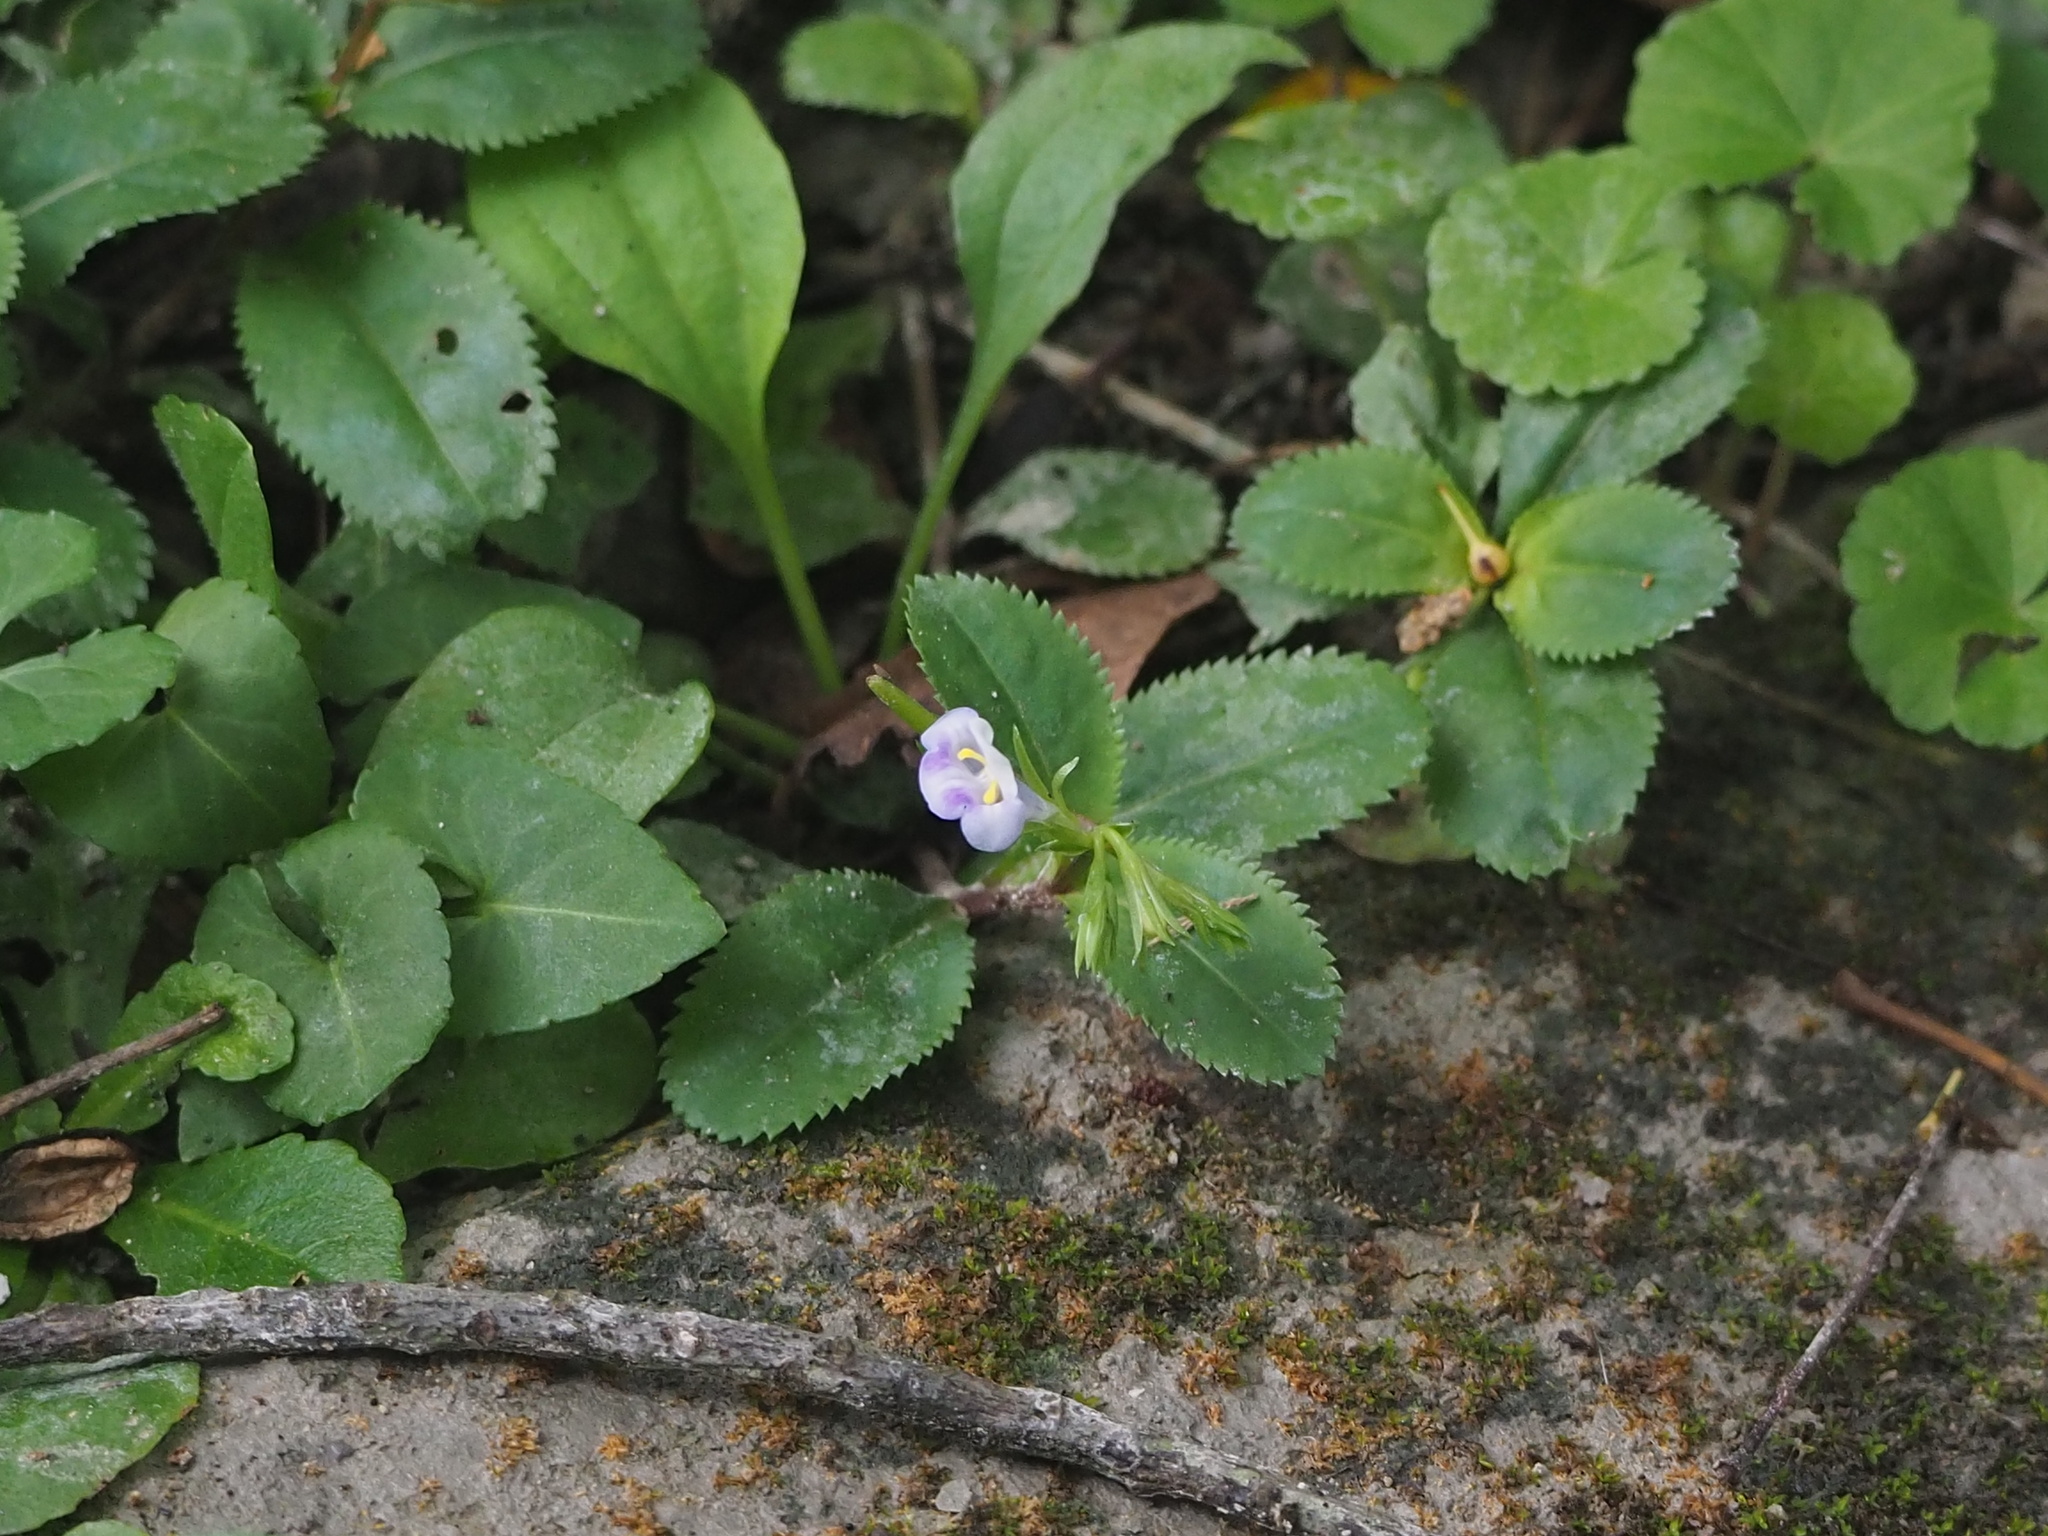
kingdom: Plantae
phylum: Tracheophyta
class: Magnoliopsida
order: Lamiales
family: Linderniaceae
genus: Bonnaya
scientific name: Bonnaya ruelloides
